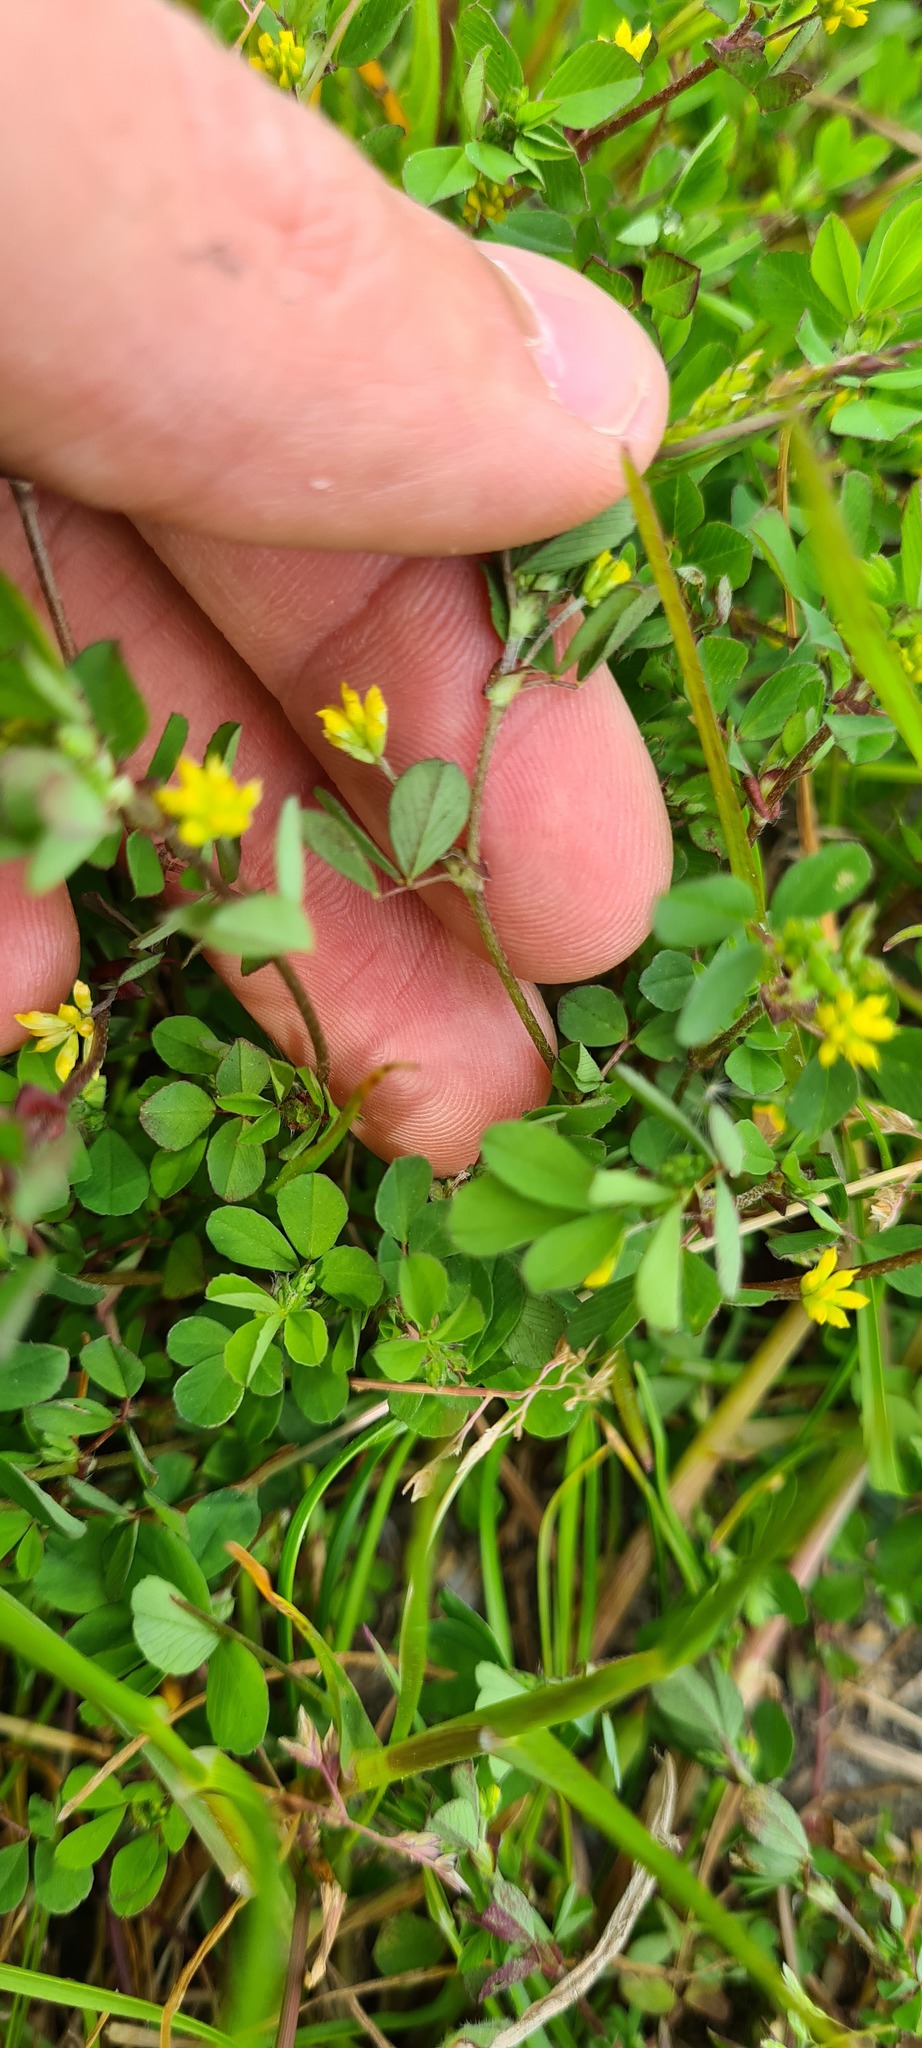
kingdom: Plantae
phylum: Tracheophyta
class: Magnoliopsida
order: Fabales
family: Fabaceae
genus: Trifolium
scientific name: Trifolium dubium
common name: Suckling clover
